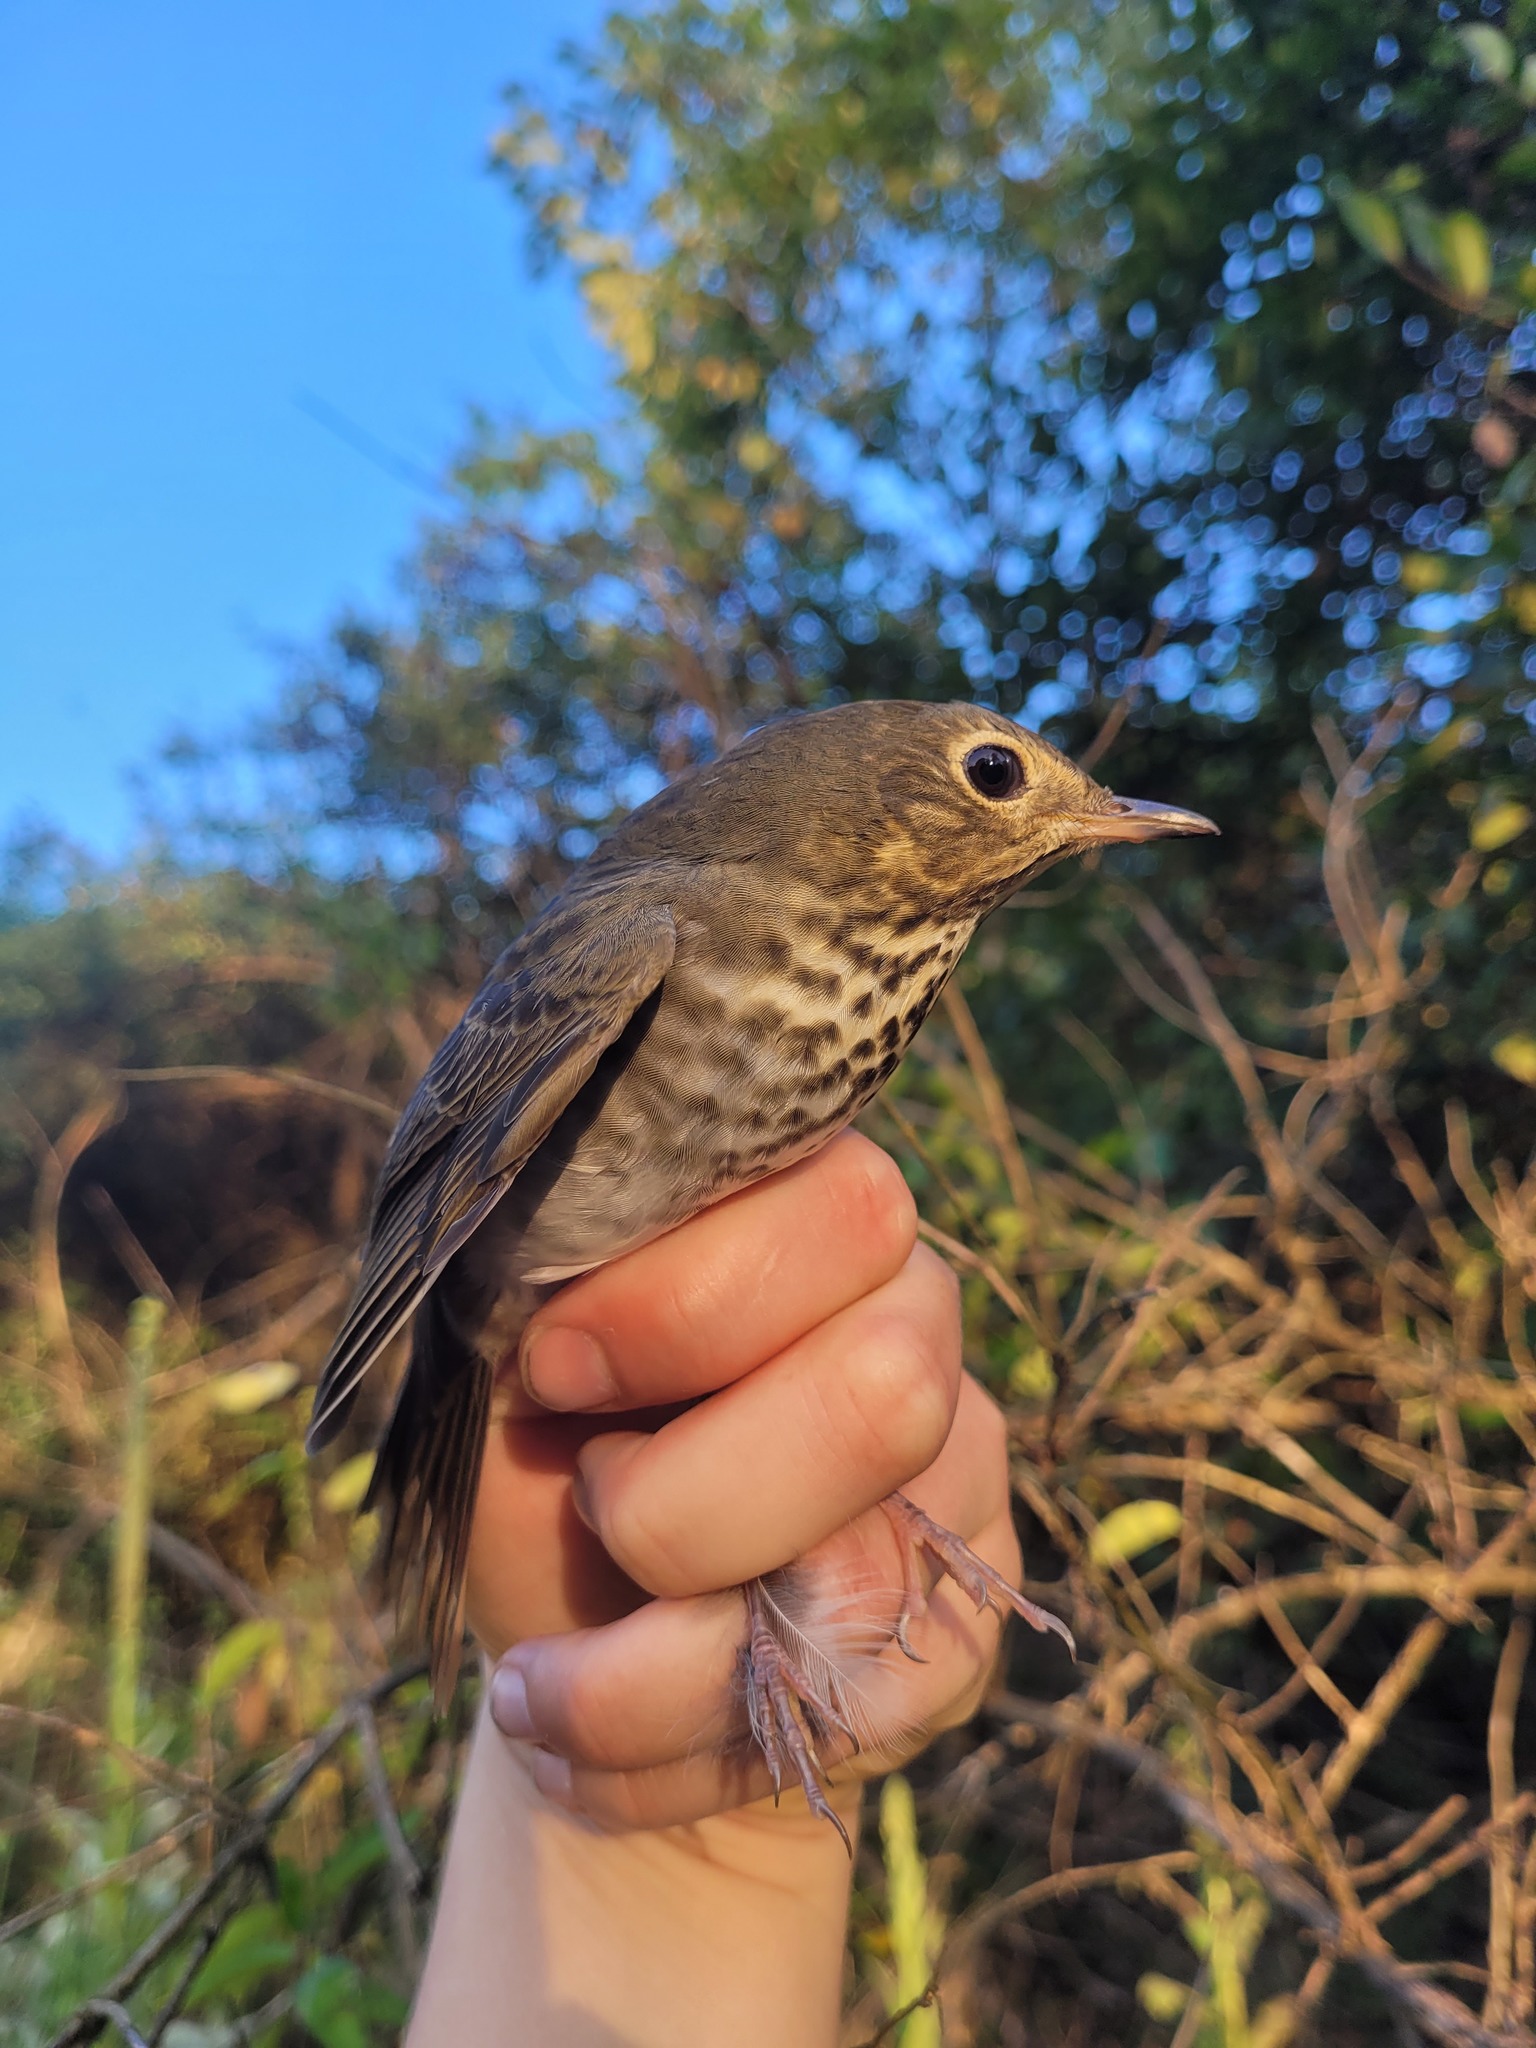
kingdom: Animalia
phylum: Chordata
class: Aves
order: Passeriformes
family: Turdidae
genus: Catharus
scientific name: Catharus ustulatus
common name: Swainson's thrush
